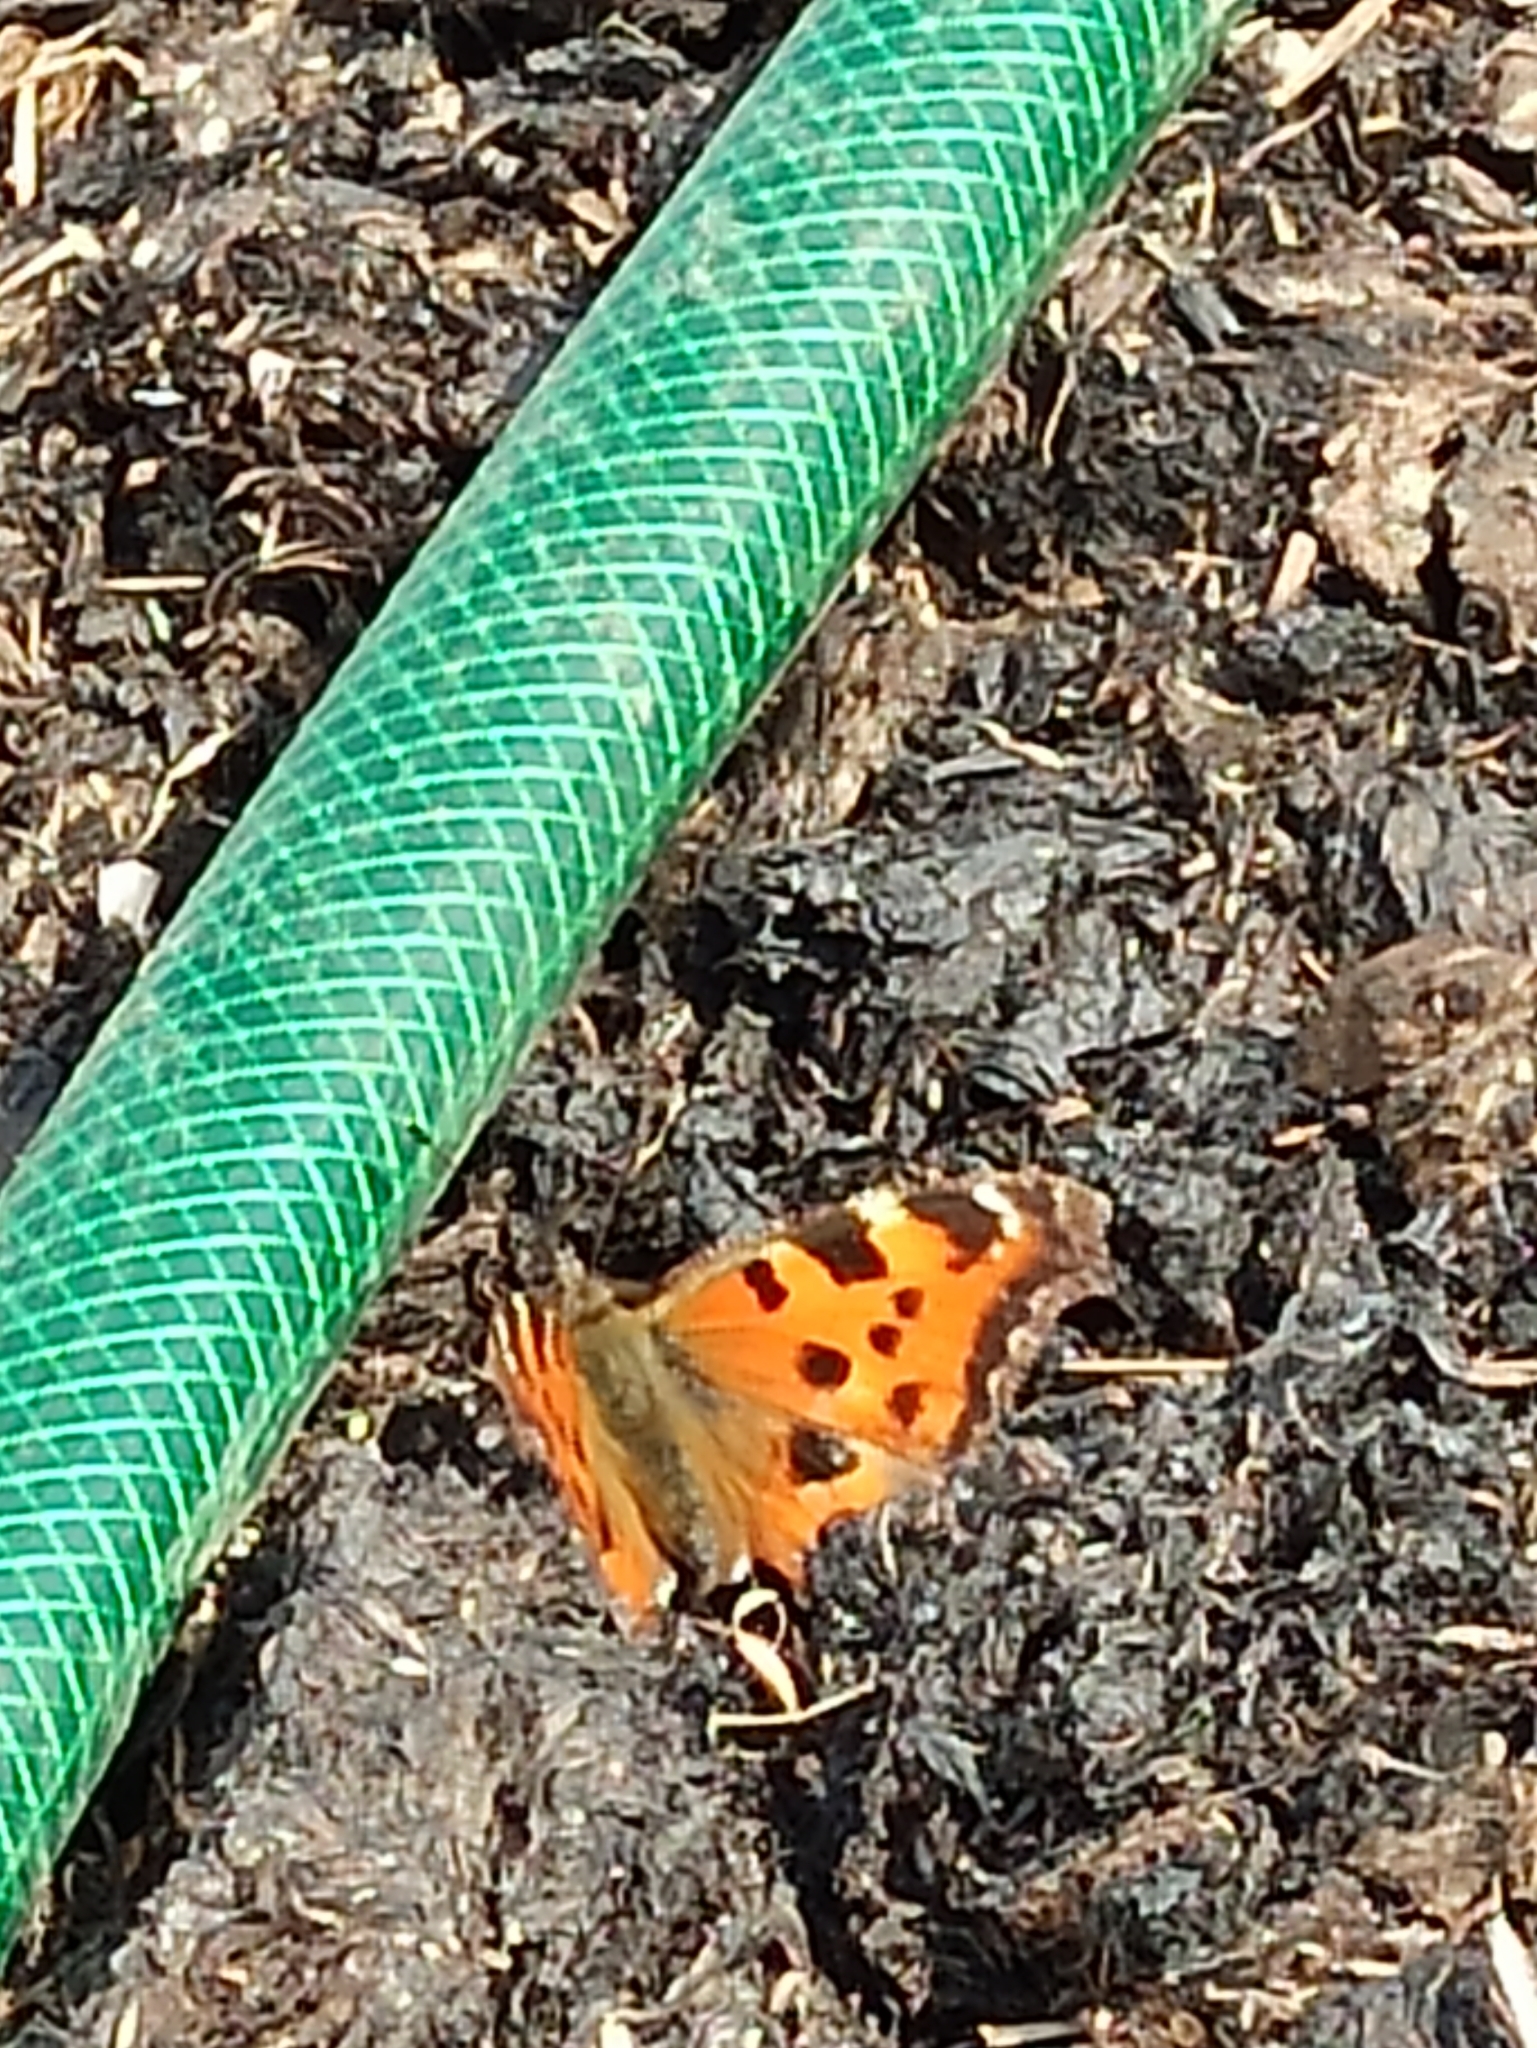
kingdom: Animalia
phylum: Arthropoda
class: Insecta
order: Lepidoptera
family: Nymphalidae
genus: Nymphalis
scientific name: Nymphalis xanthomelas
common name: Scarce tortoiseshell
